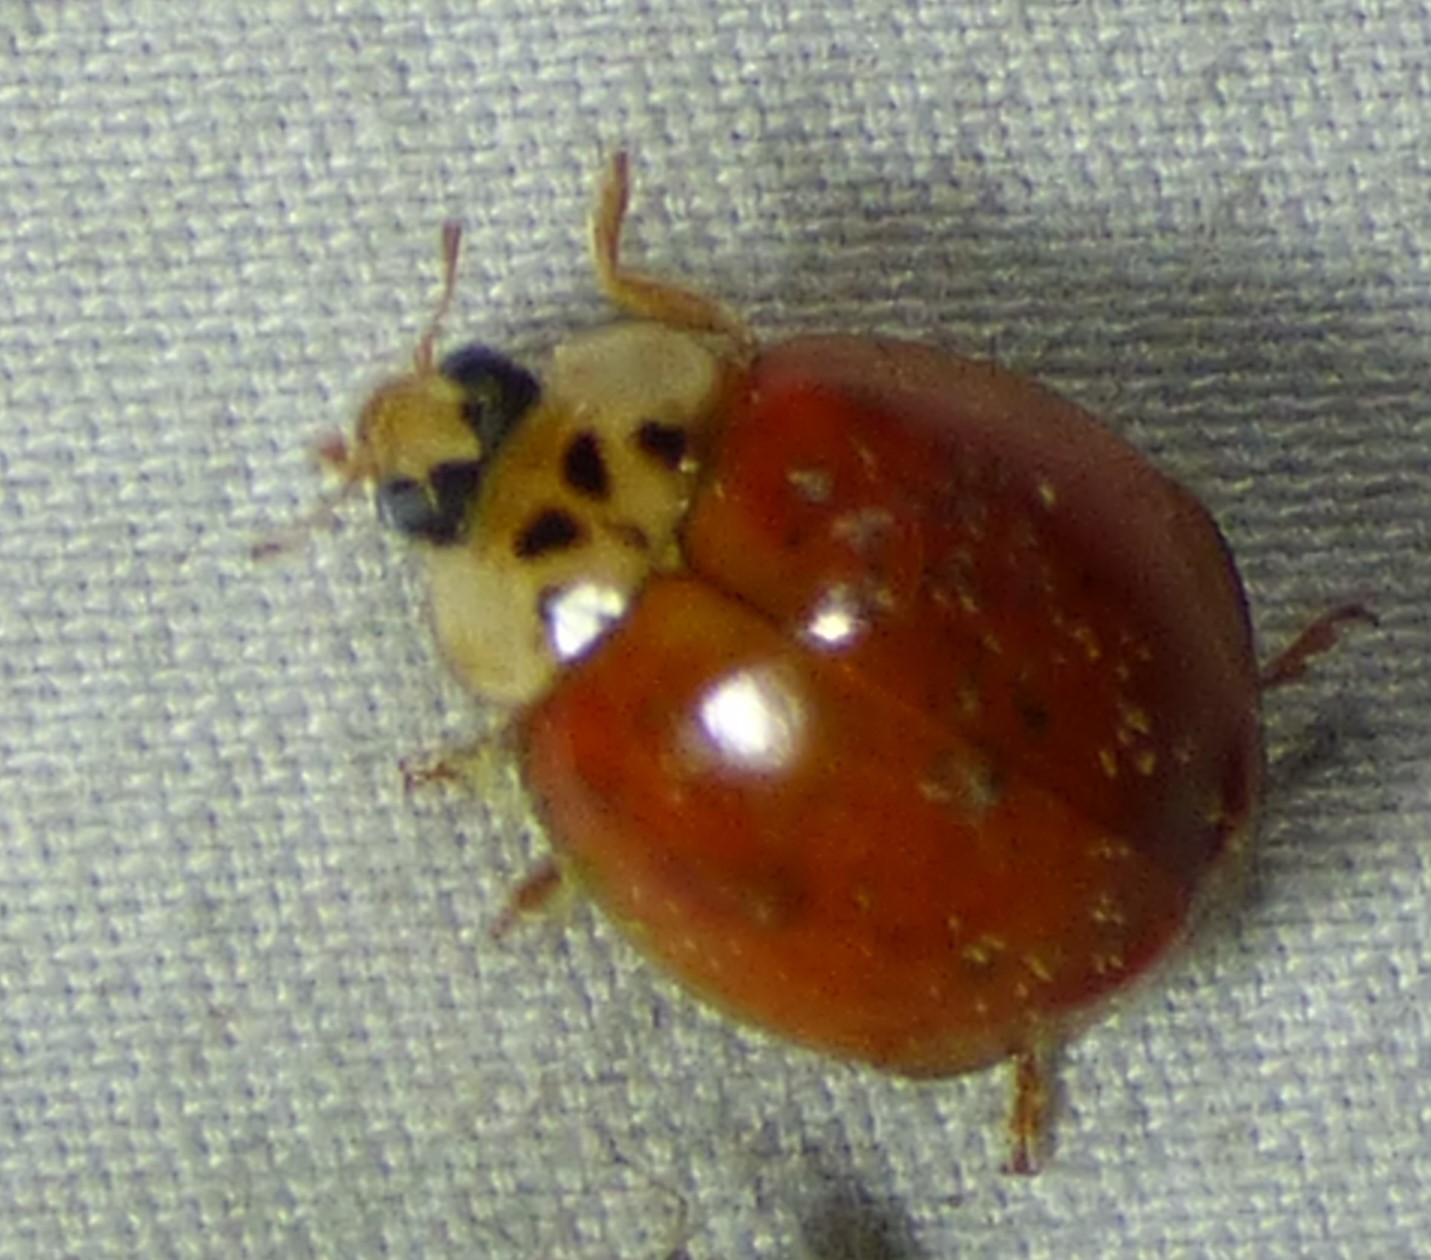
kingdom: Animalia
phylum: Arthropoda
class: Insecta
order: Coleoptera
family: Coccinellidae
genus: Harmonia
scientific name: Harmonia axyridis
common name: Harlequin ladybird
